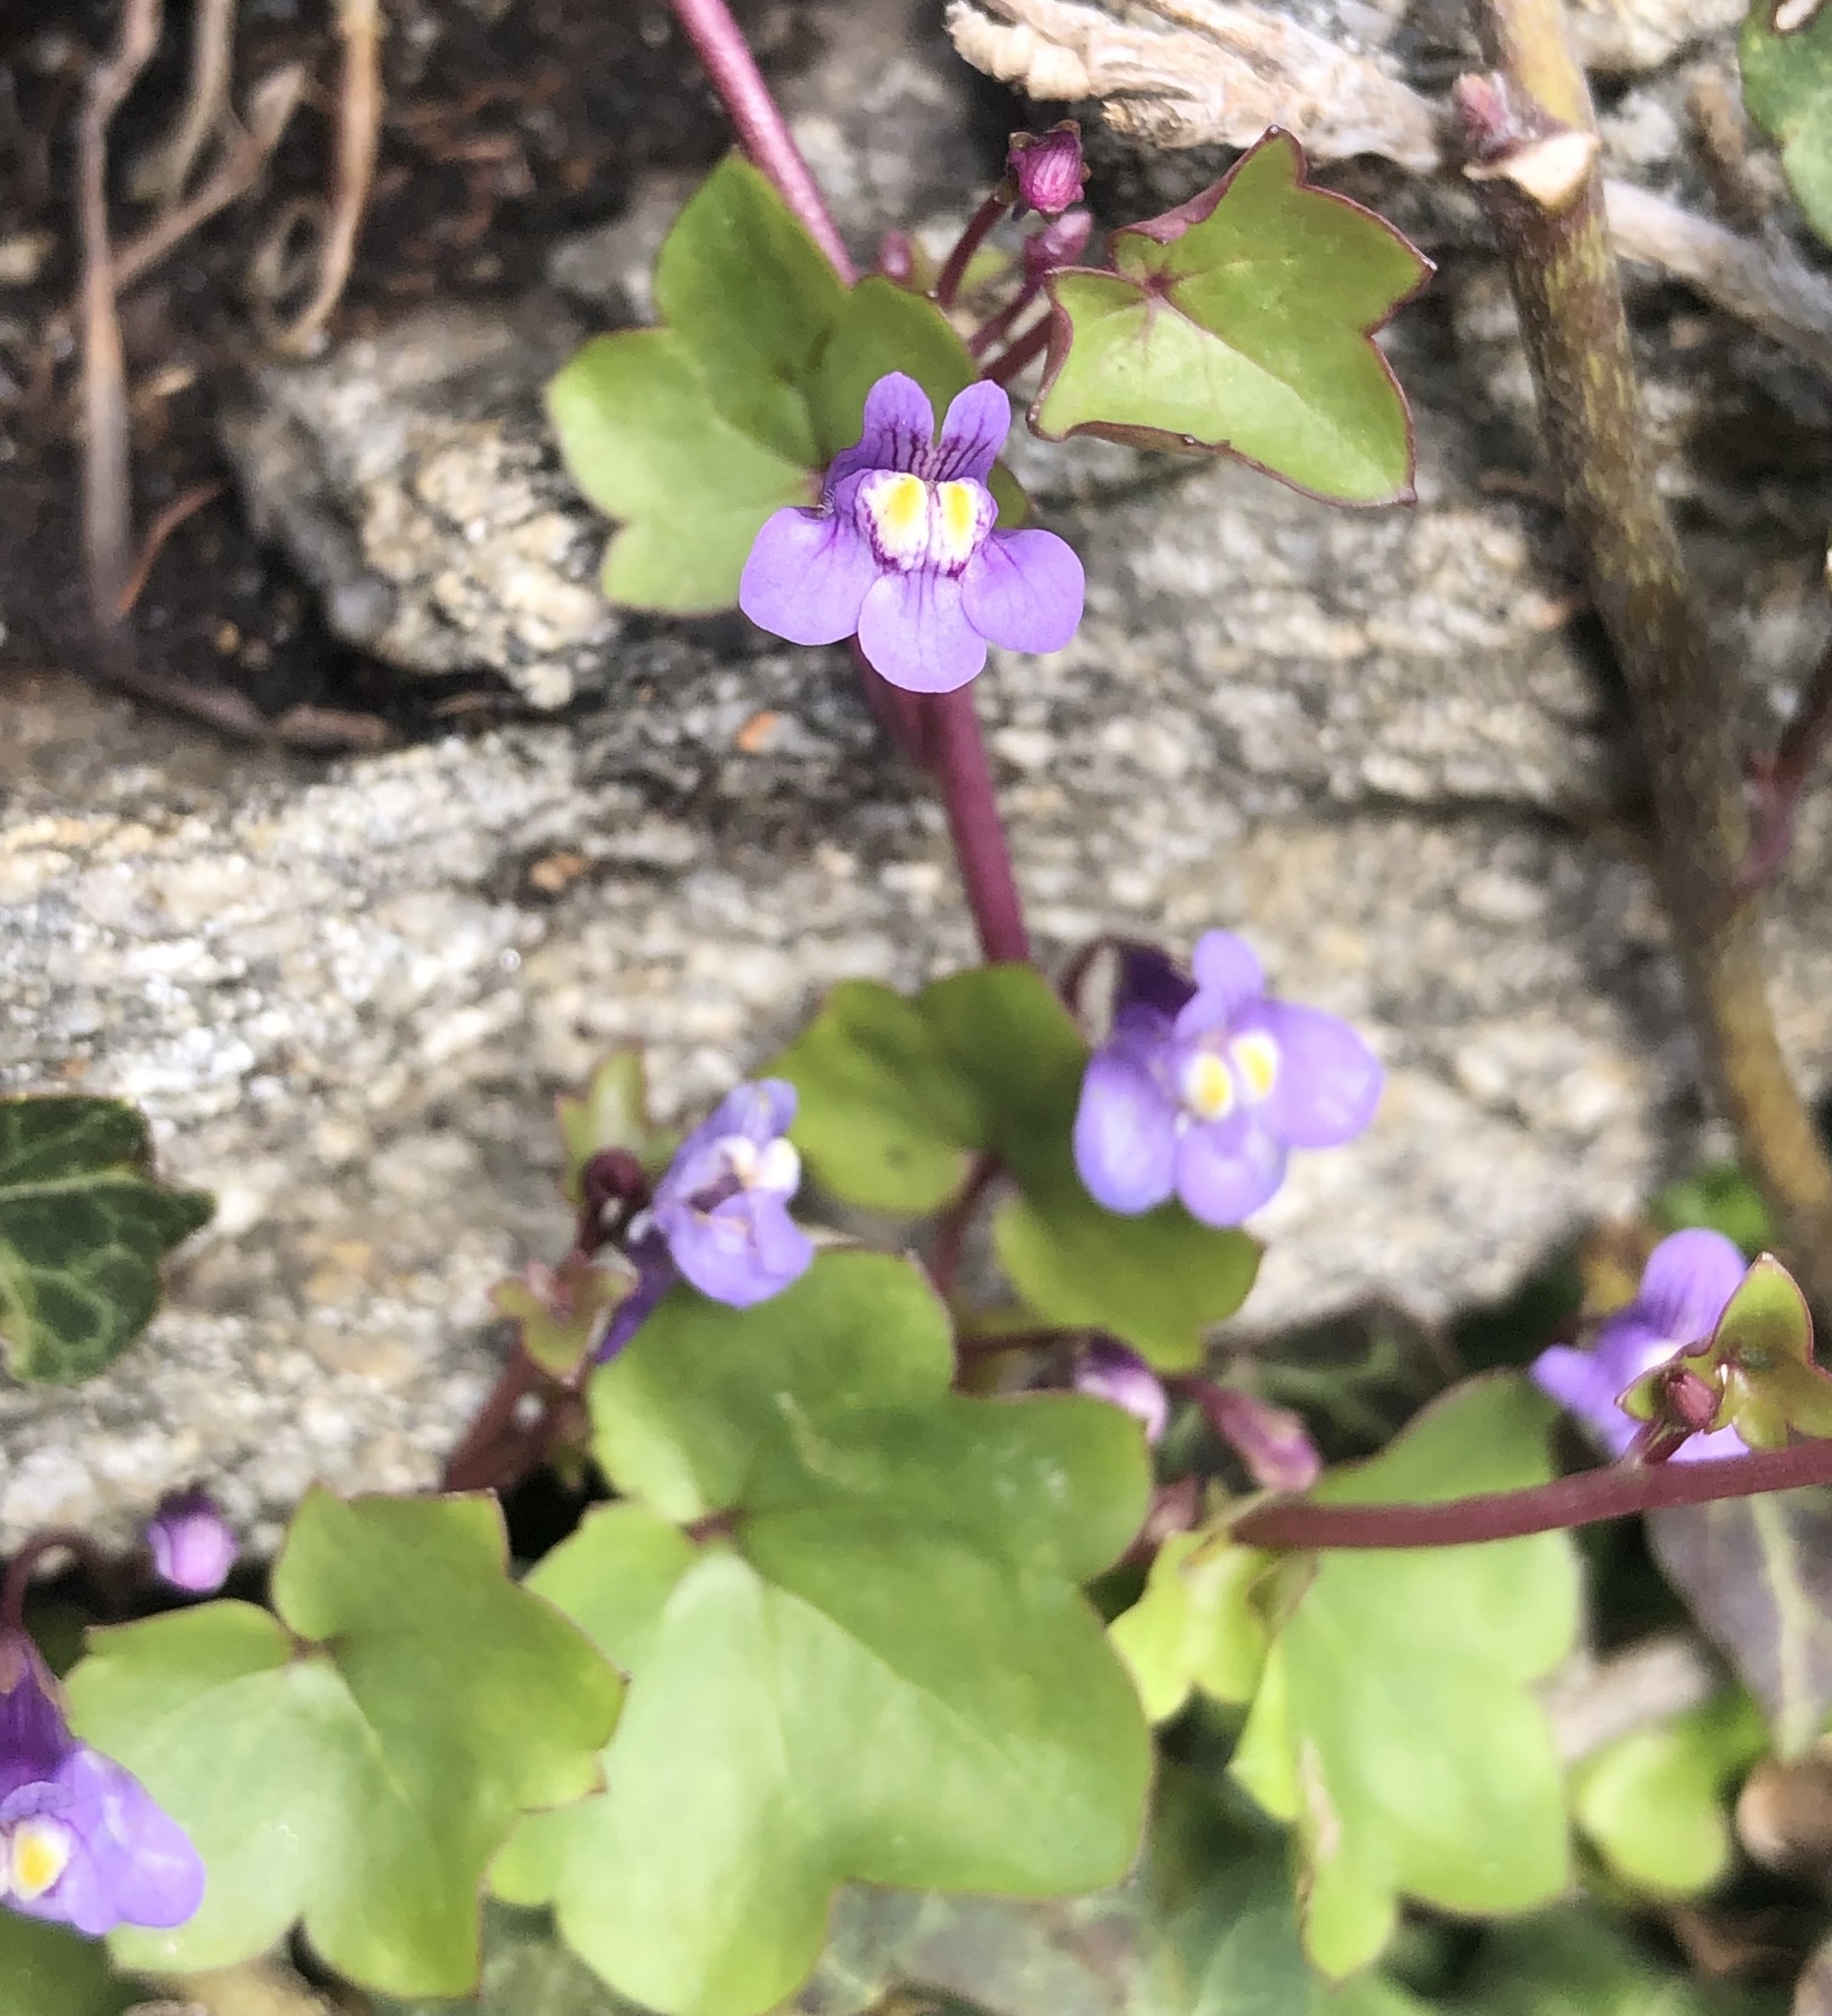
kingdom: Plantae
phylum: Tracheophyta
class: Magnoliopsida
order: Lamiales
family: Plantaginaceae
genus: Cymbalaria
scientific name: Cymbalaria muralis
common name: Ivy-leaved toadflax
